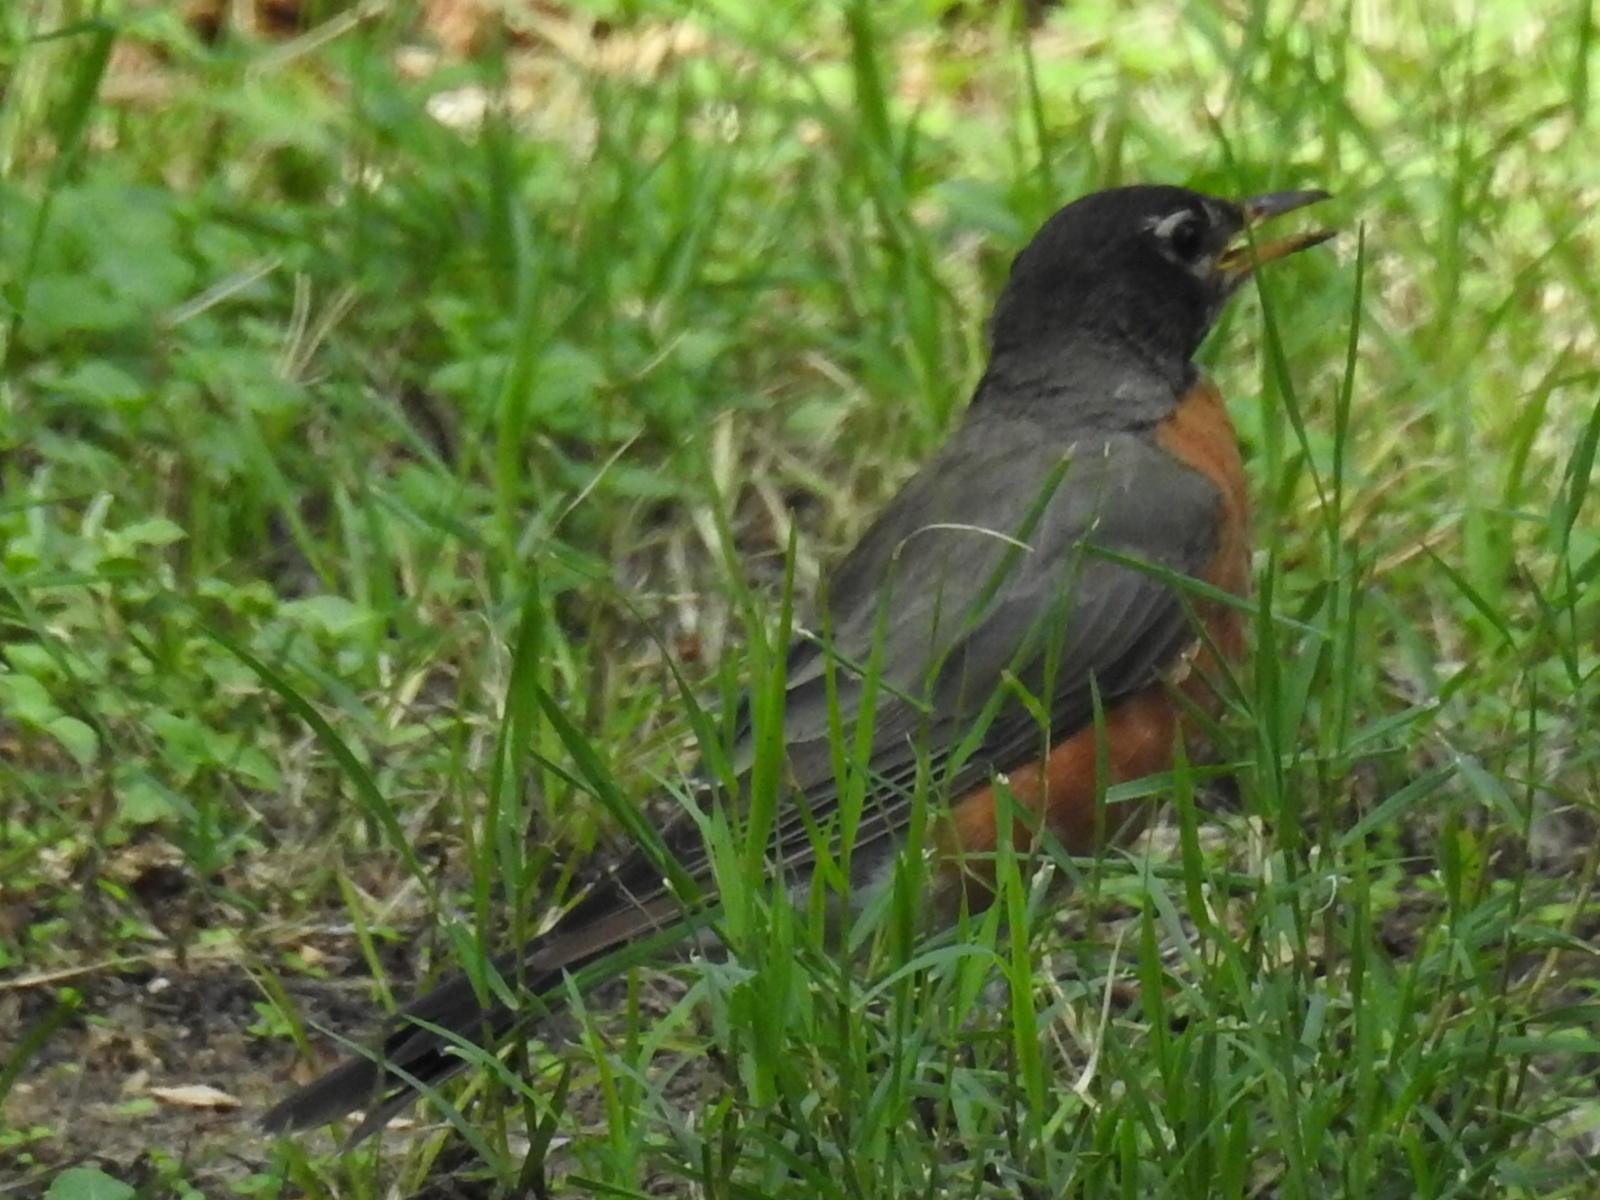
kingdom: Animalia
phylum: Chordata
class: Aves
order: Passeriformes
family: Turdidae
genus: Turdus
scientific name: Turdus migratorius
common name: American robin
